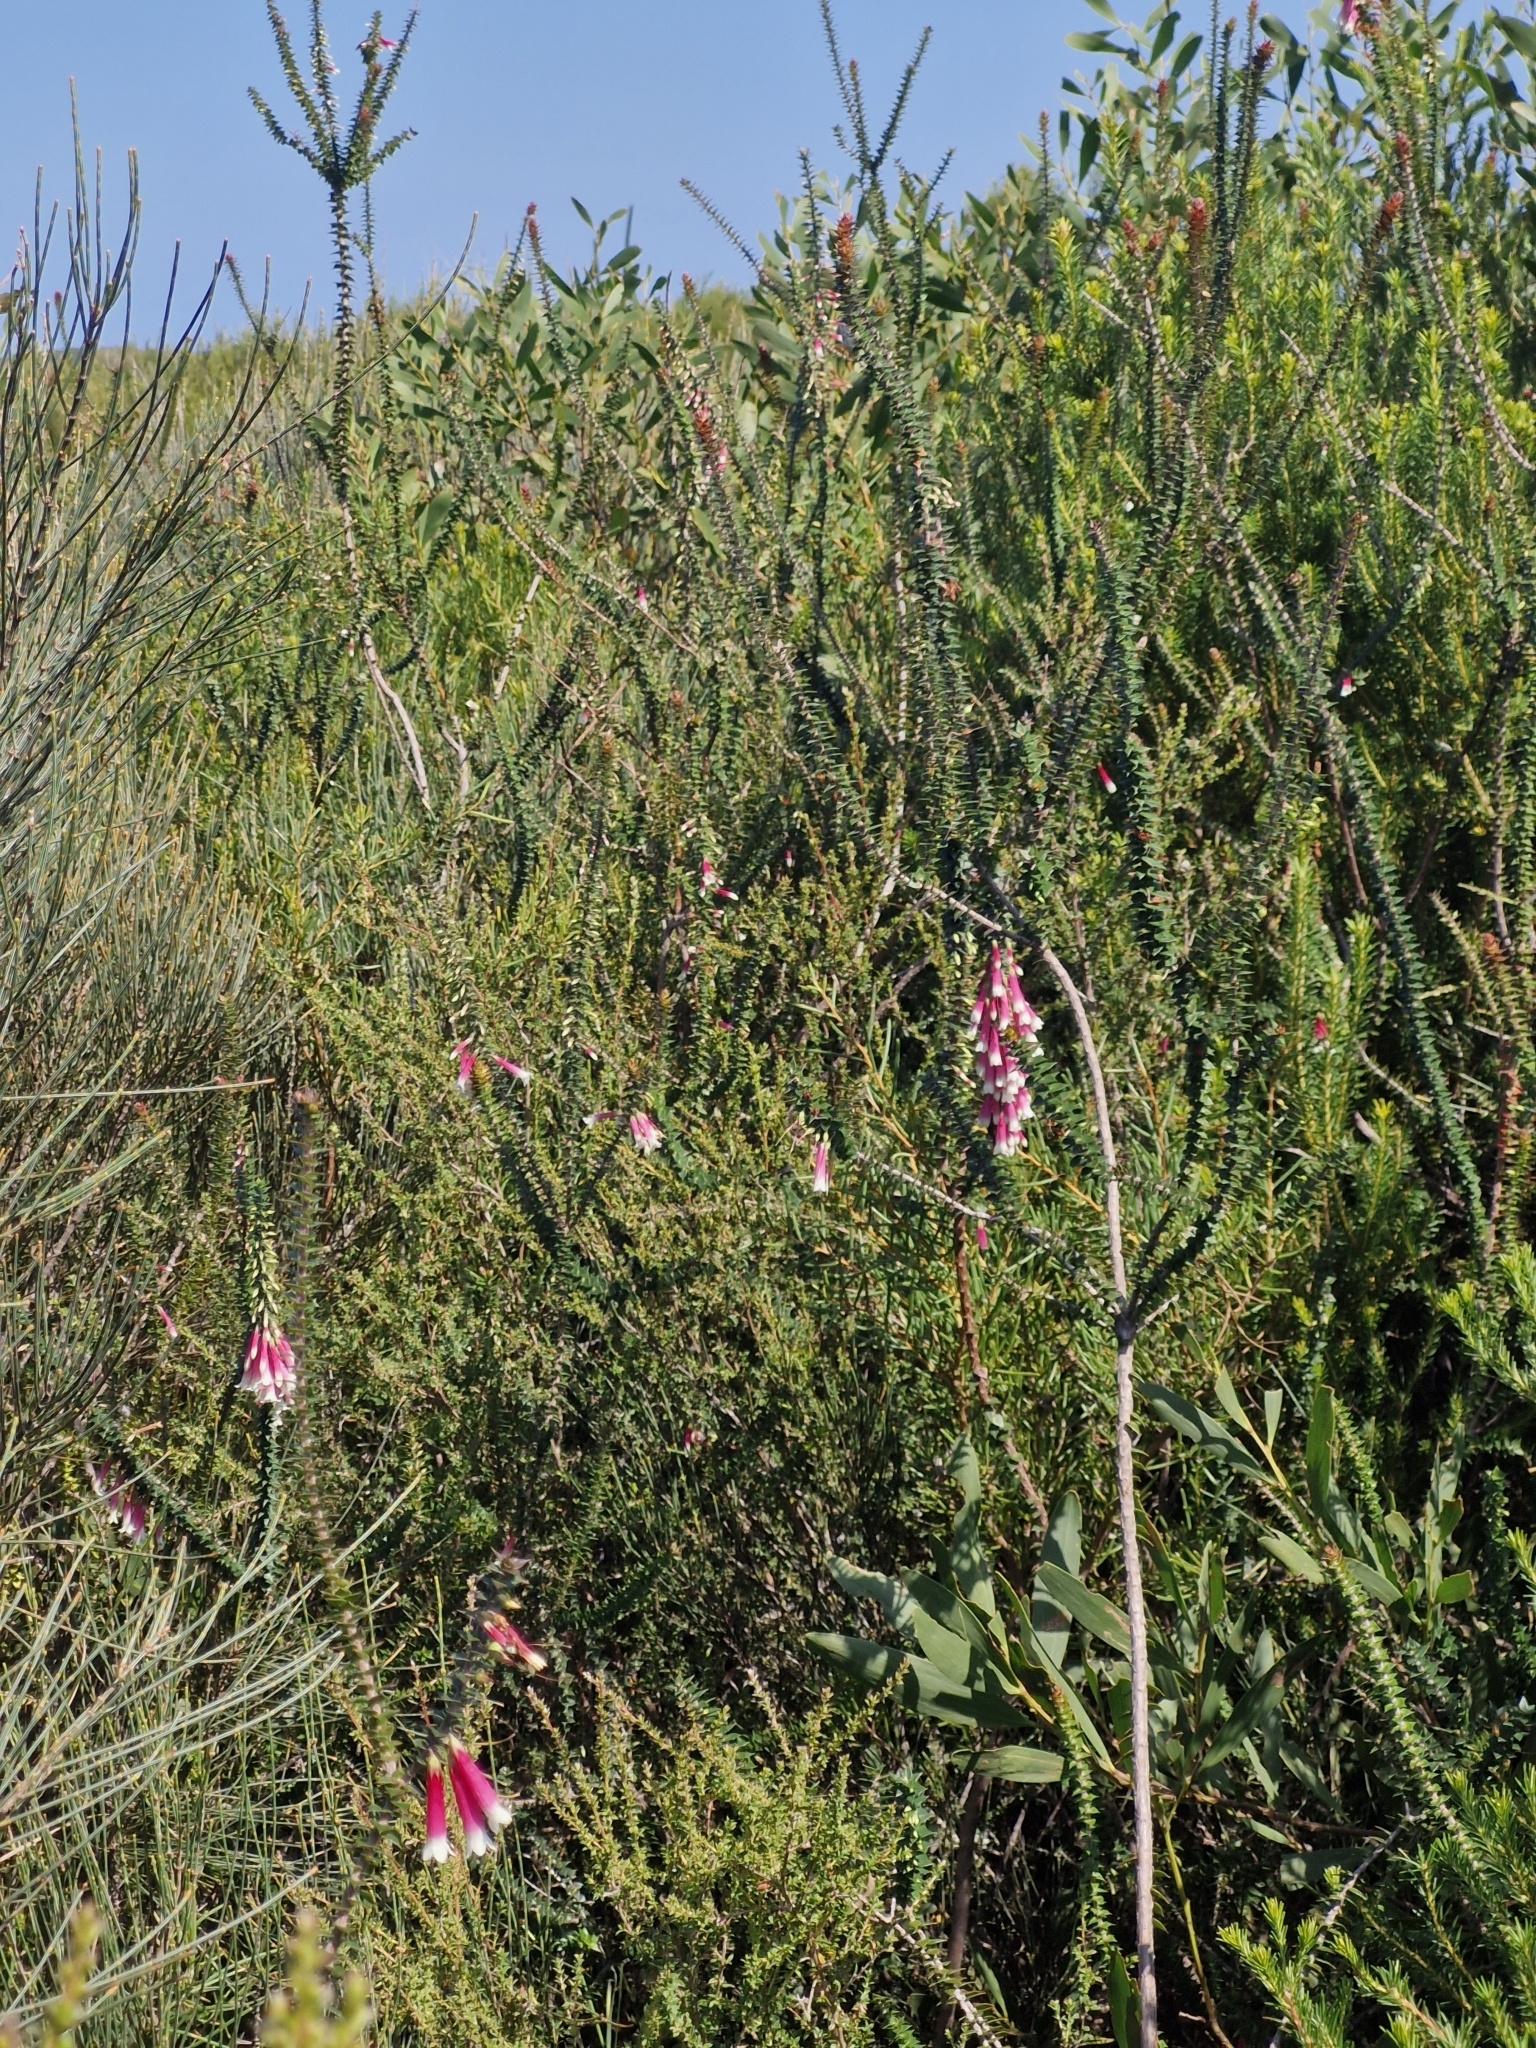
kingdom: Plantae
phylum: Tracheophyta
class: Magnoliopsida
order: Ericales
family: Ericaceae
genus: Epacris
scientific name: Epacris longiflora
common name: Fuchsia-heath
